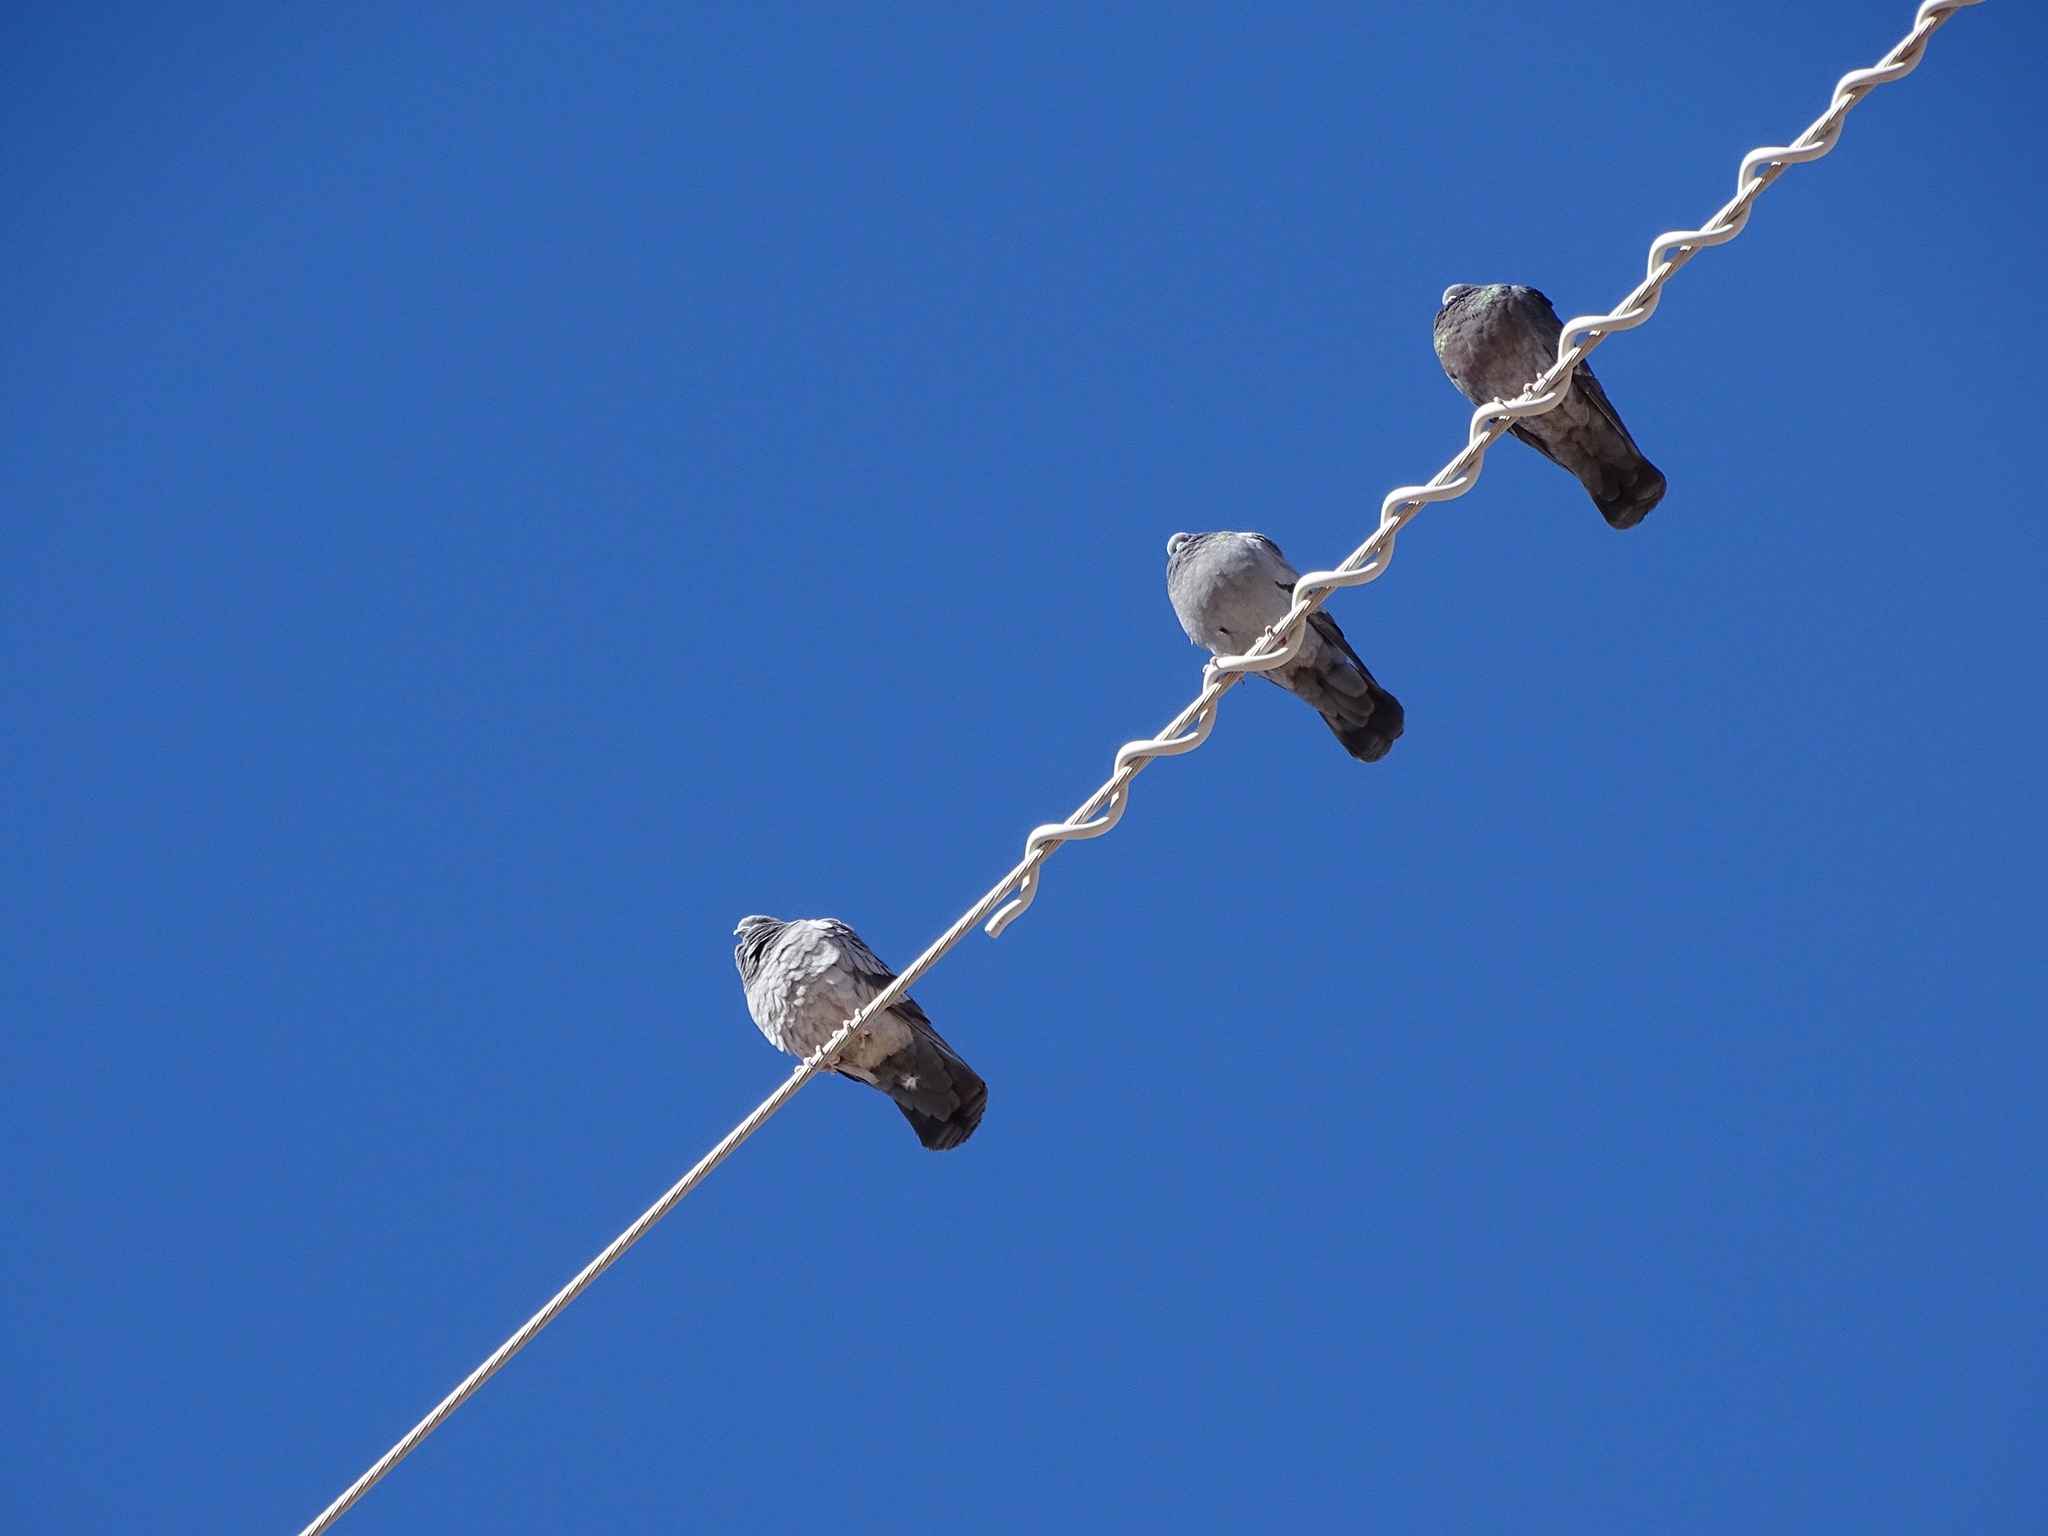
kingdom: Animalia
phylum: Chordata
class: Aves
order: Columbiformes
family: Columbidae
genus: Columba
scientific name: Columba livia
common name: Rock pigeon
